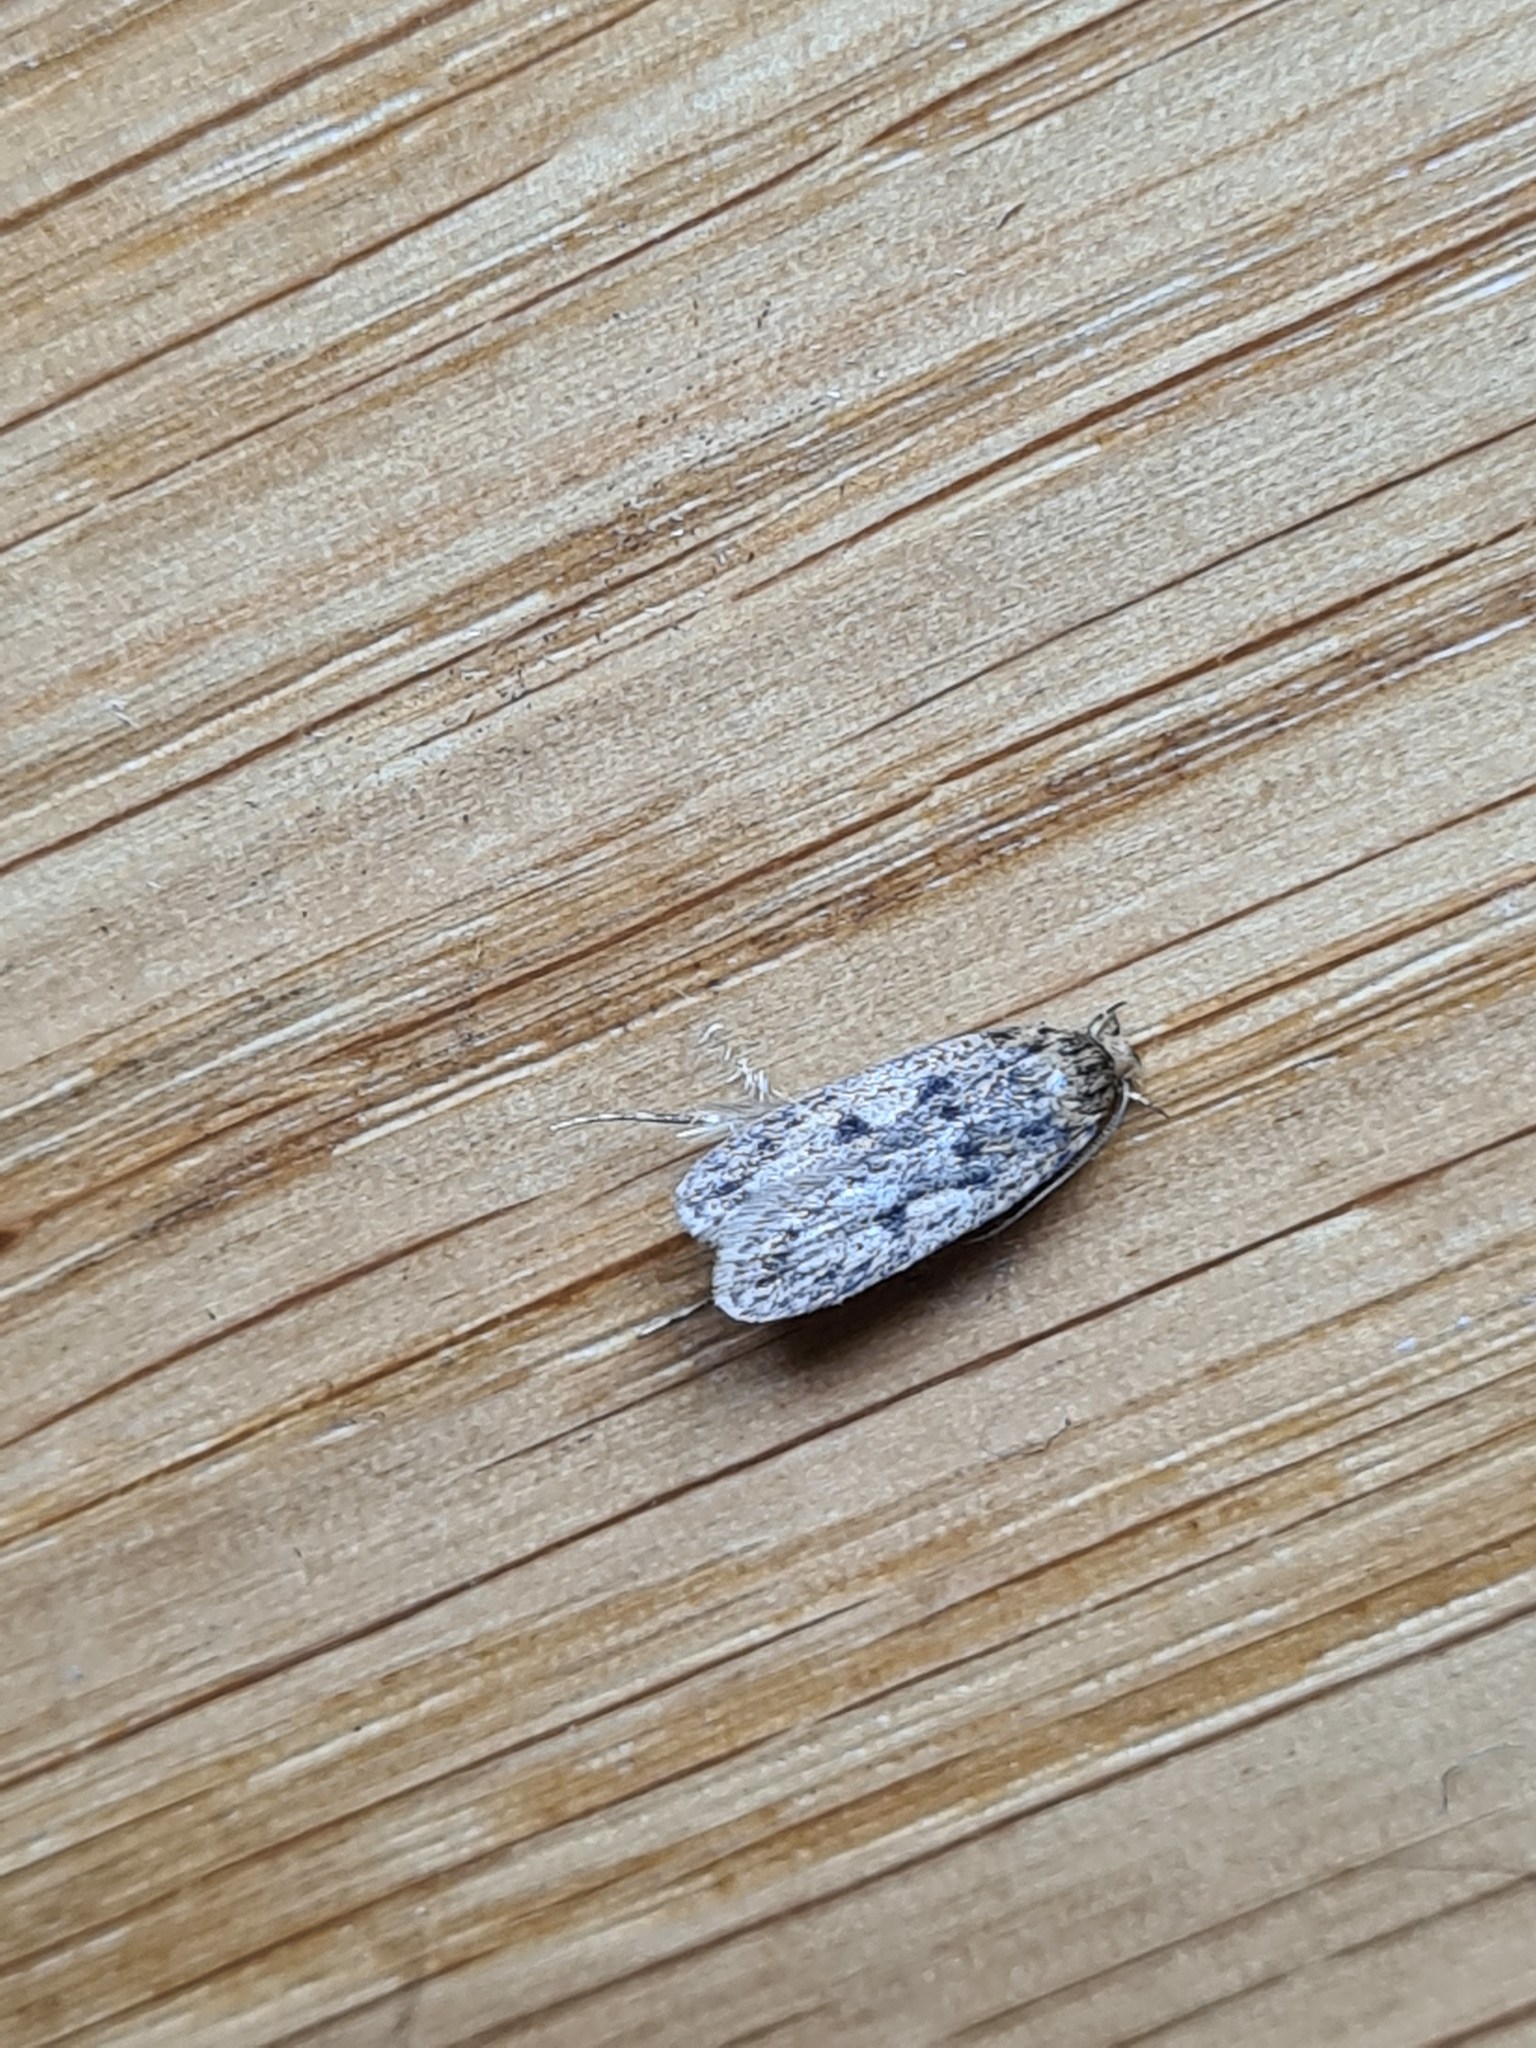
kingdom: Animalia
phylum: Arthropoda
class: Insecta
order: Lepidoptera
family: Oecophoridae
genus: Hofmannophila
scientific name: Hofmannophila pseudospretella
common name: Brown house moth
